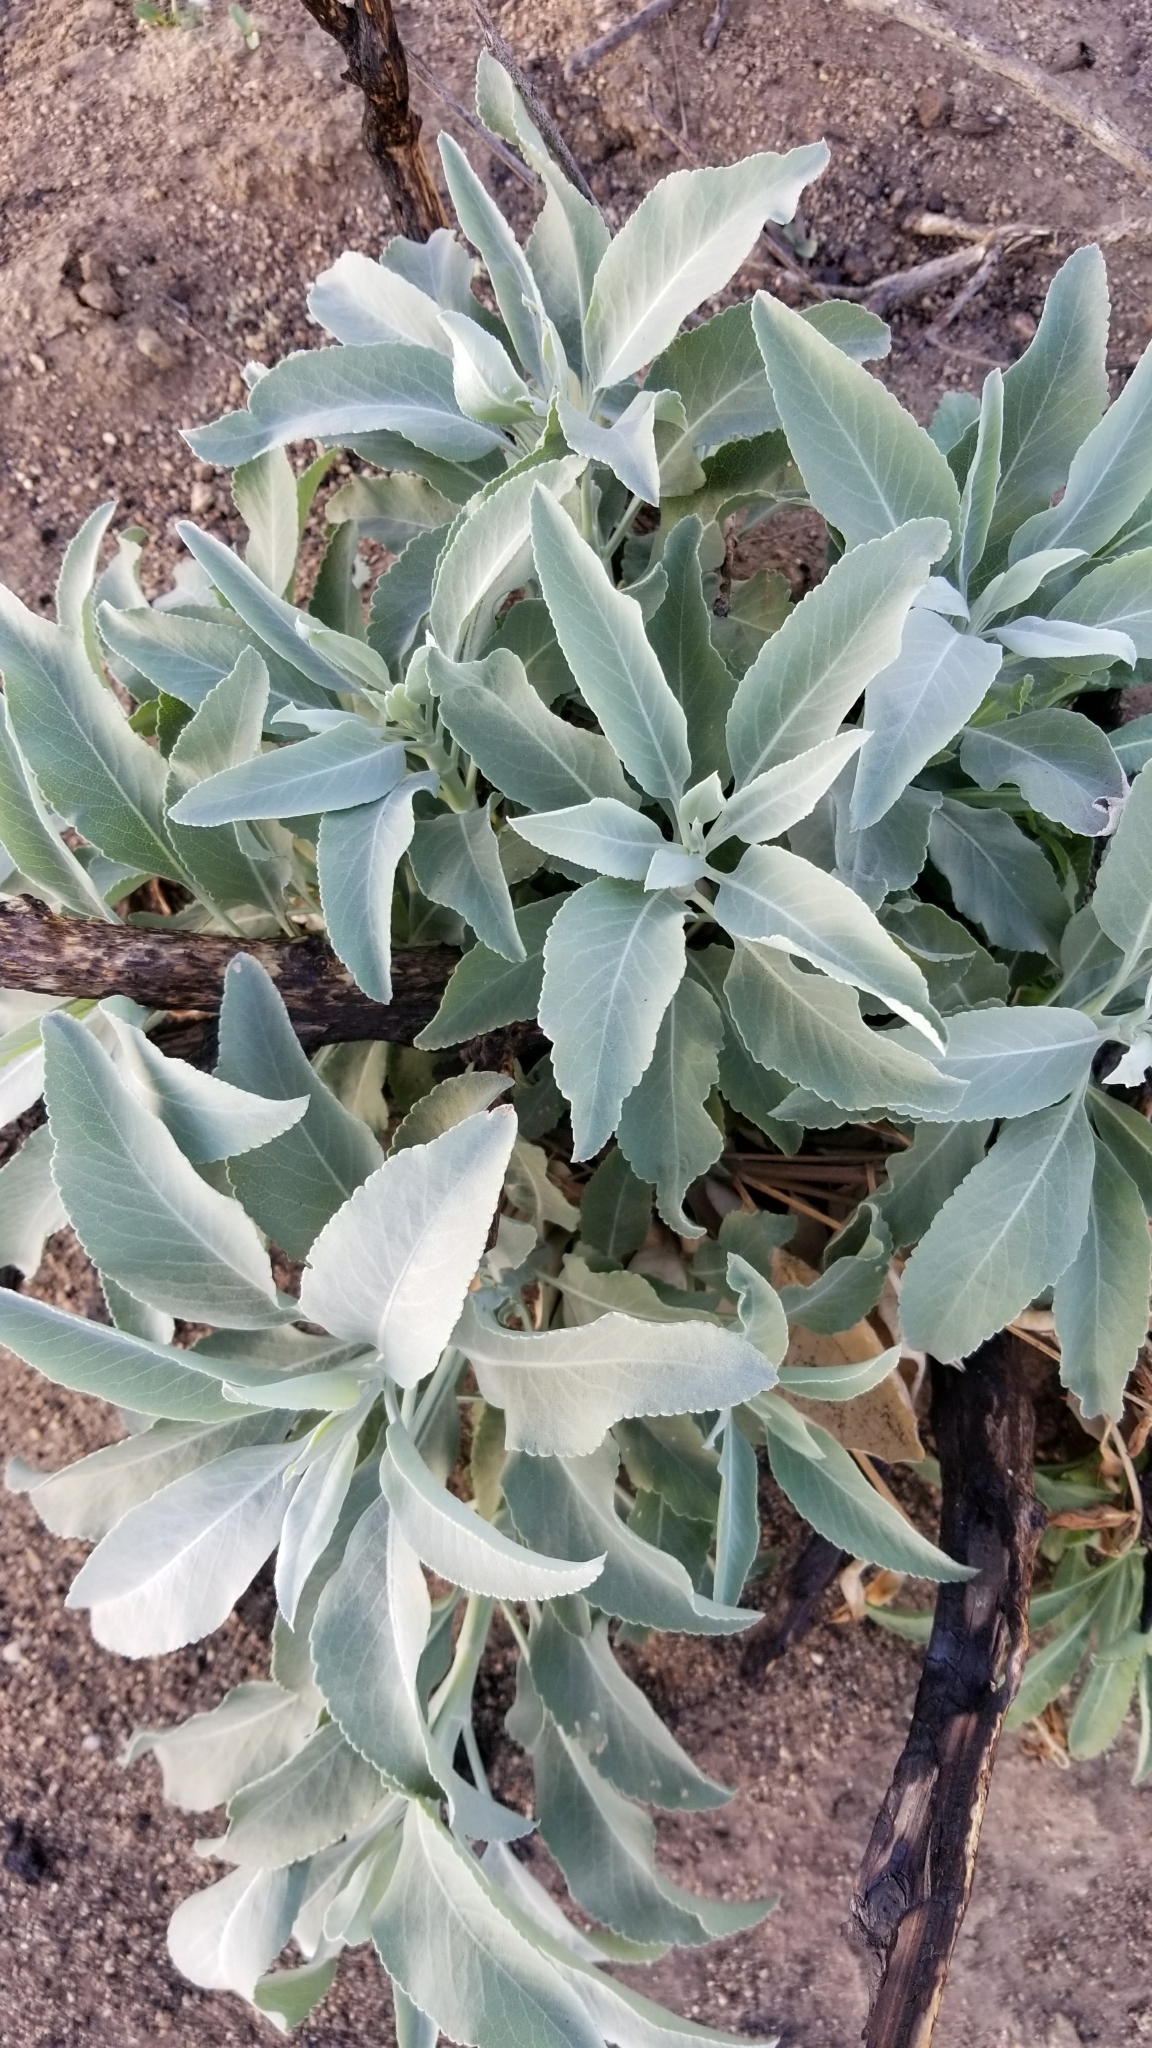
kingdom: Plantae
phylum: Tracheophyta
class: Magnoliopsida
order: Lamiales
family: Lamiaceae
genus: Salvia
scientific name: Salvia apiana
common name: White sage
